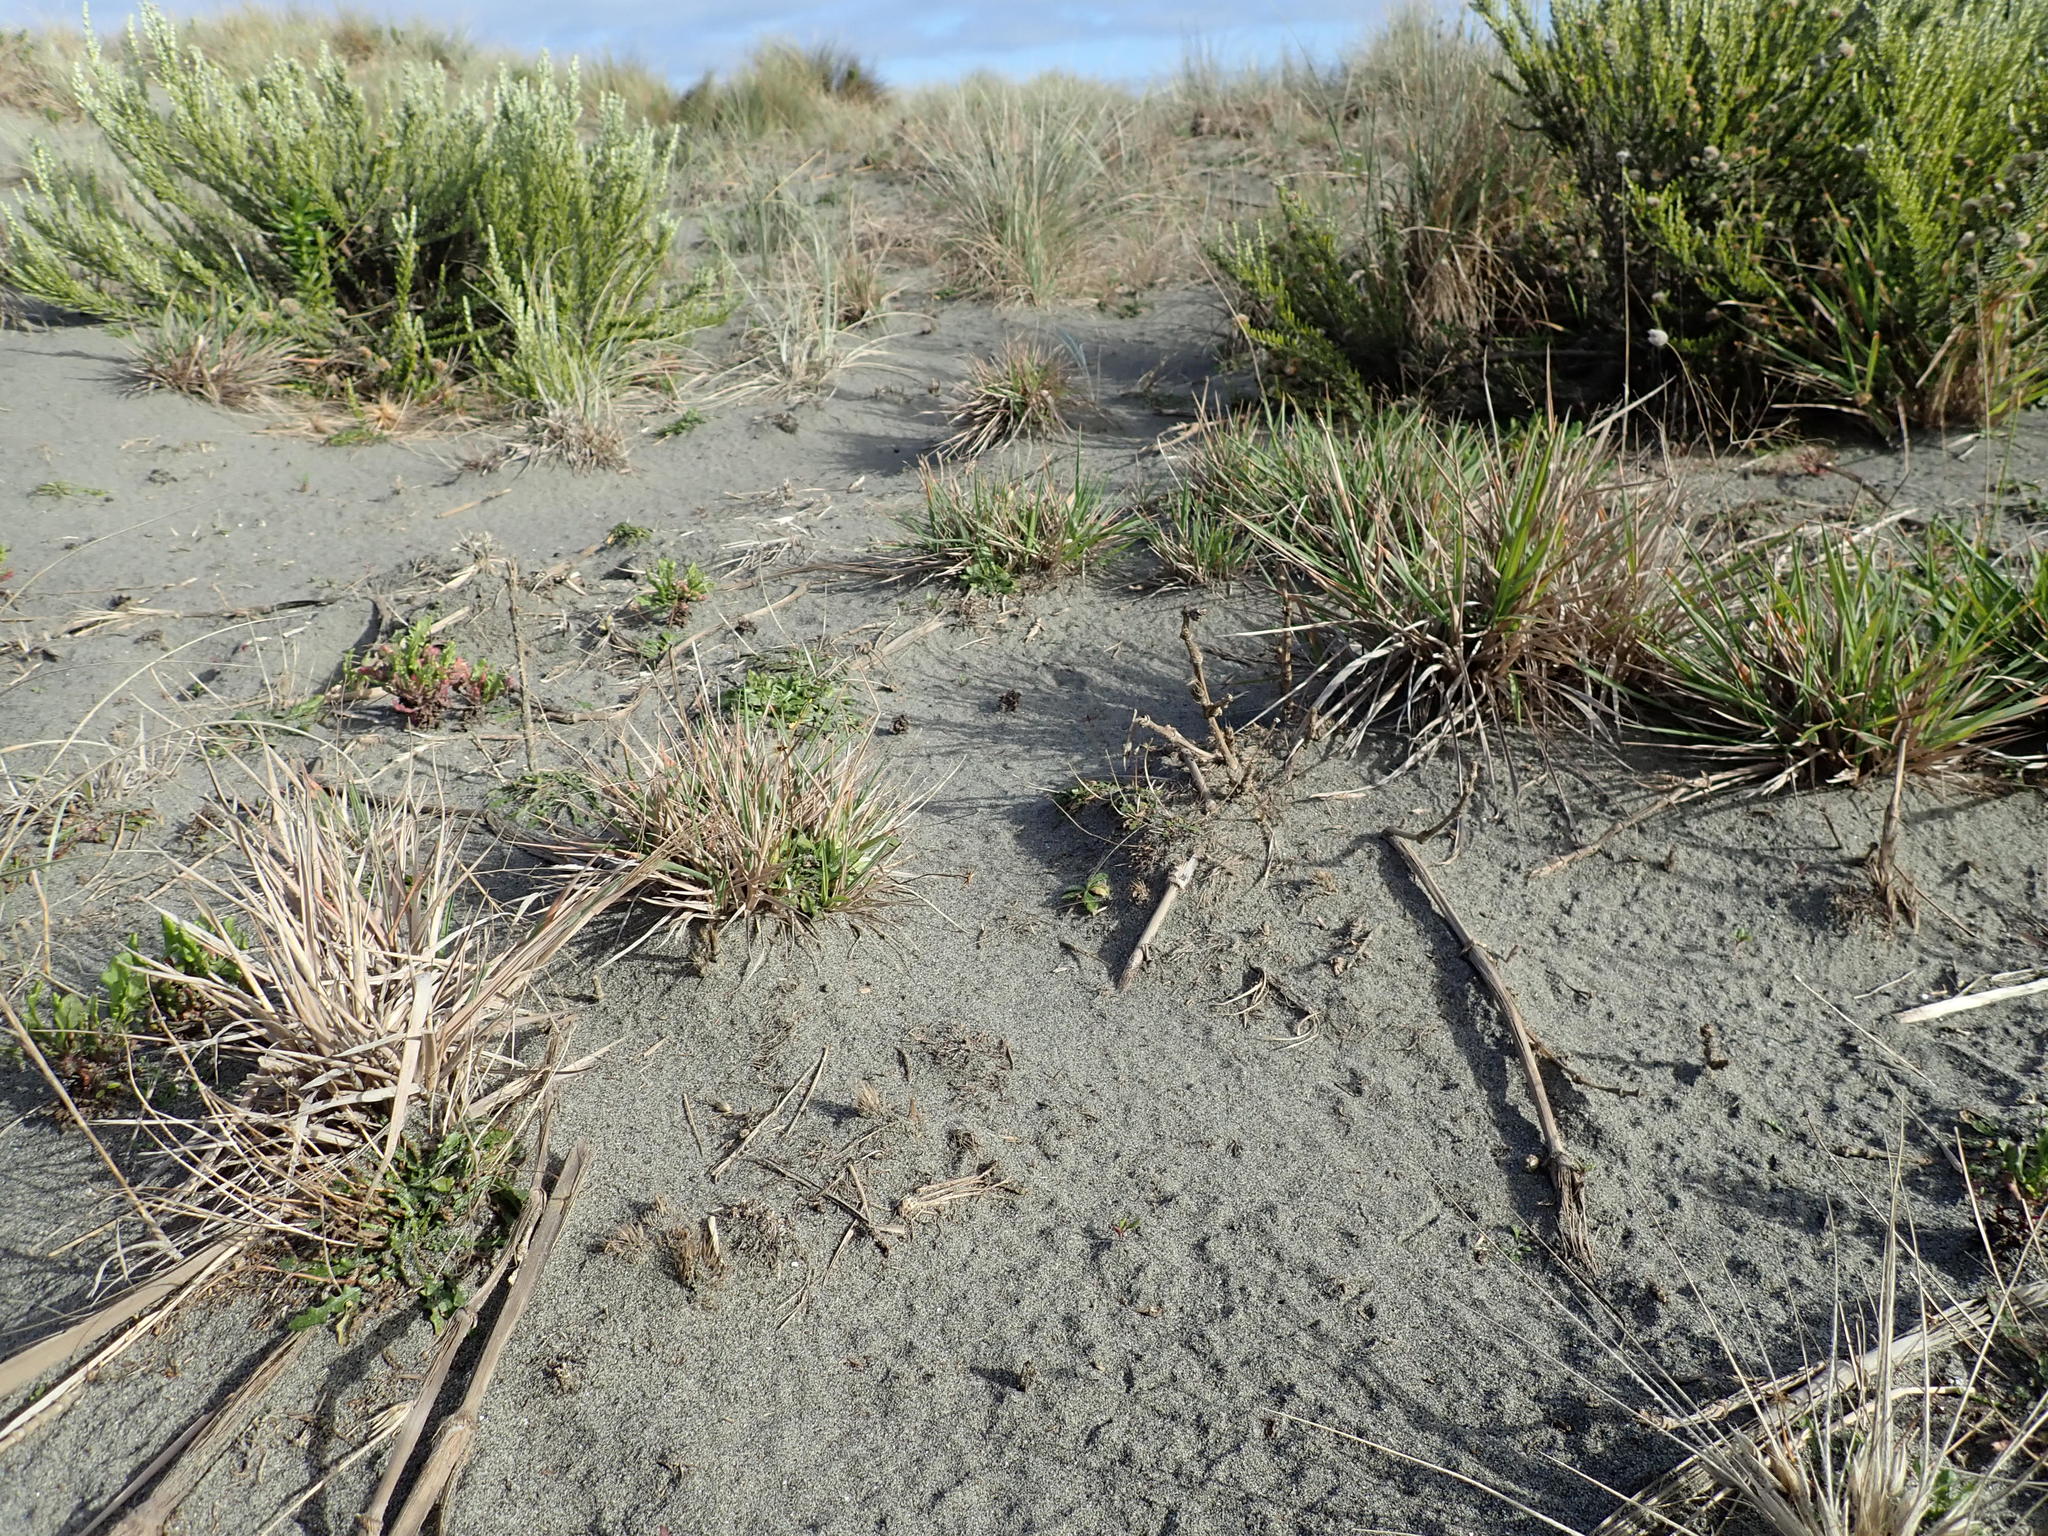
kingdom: Plantae
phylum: Tracheophyta
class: Liliopsida
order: Poales
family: Poaceae
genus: Lachnagrostis
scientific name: Lachnagrostis billardierei
